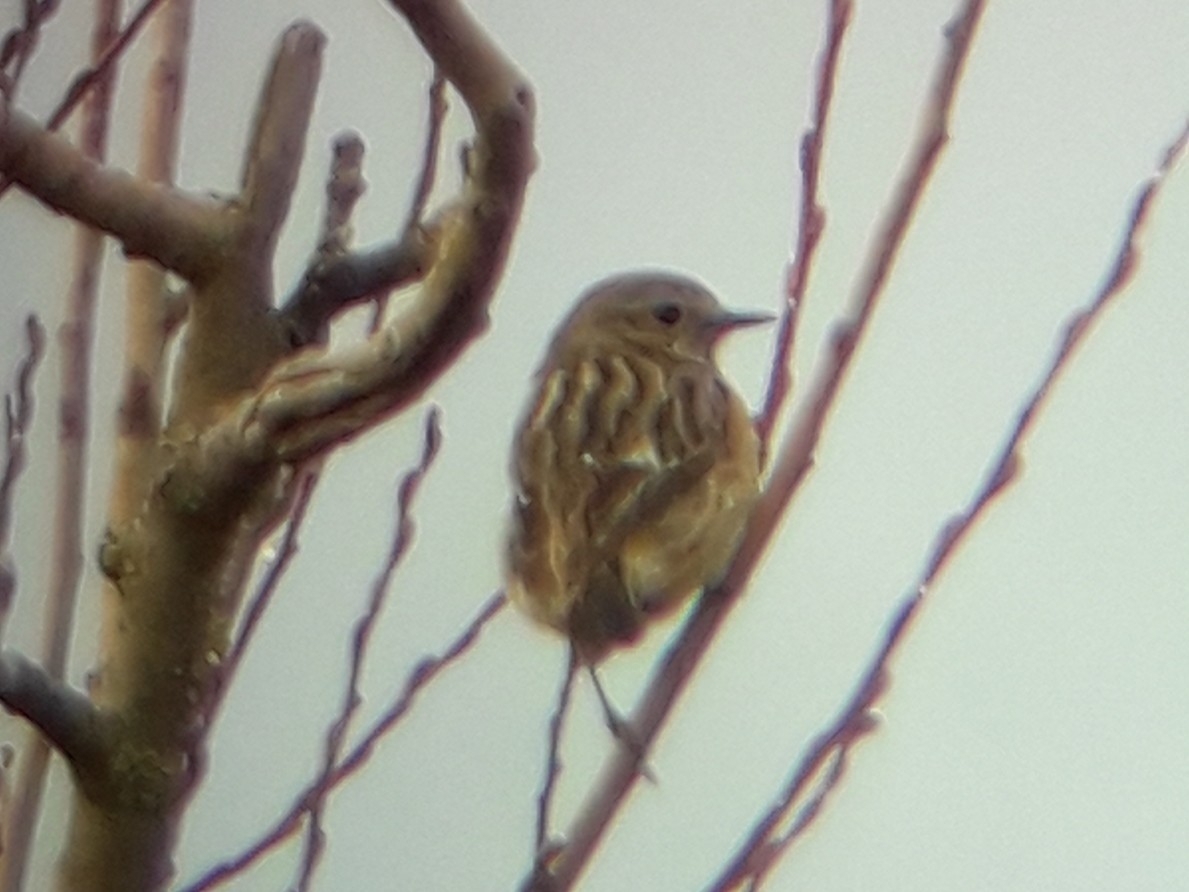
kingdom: Animalia
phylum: Chordata
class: Aves
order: Passeriformes
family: Muscicapidae
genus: Saxicola
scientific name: Saxicola rubicola
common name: European stonechat
